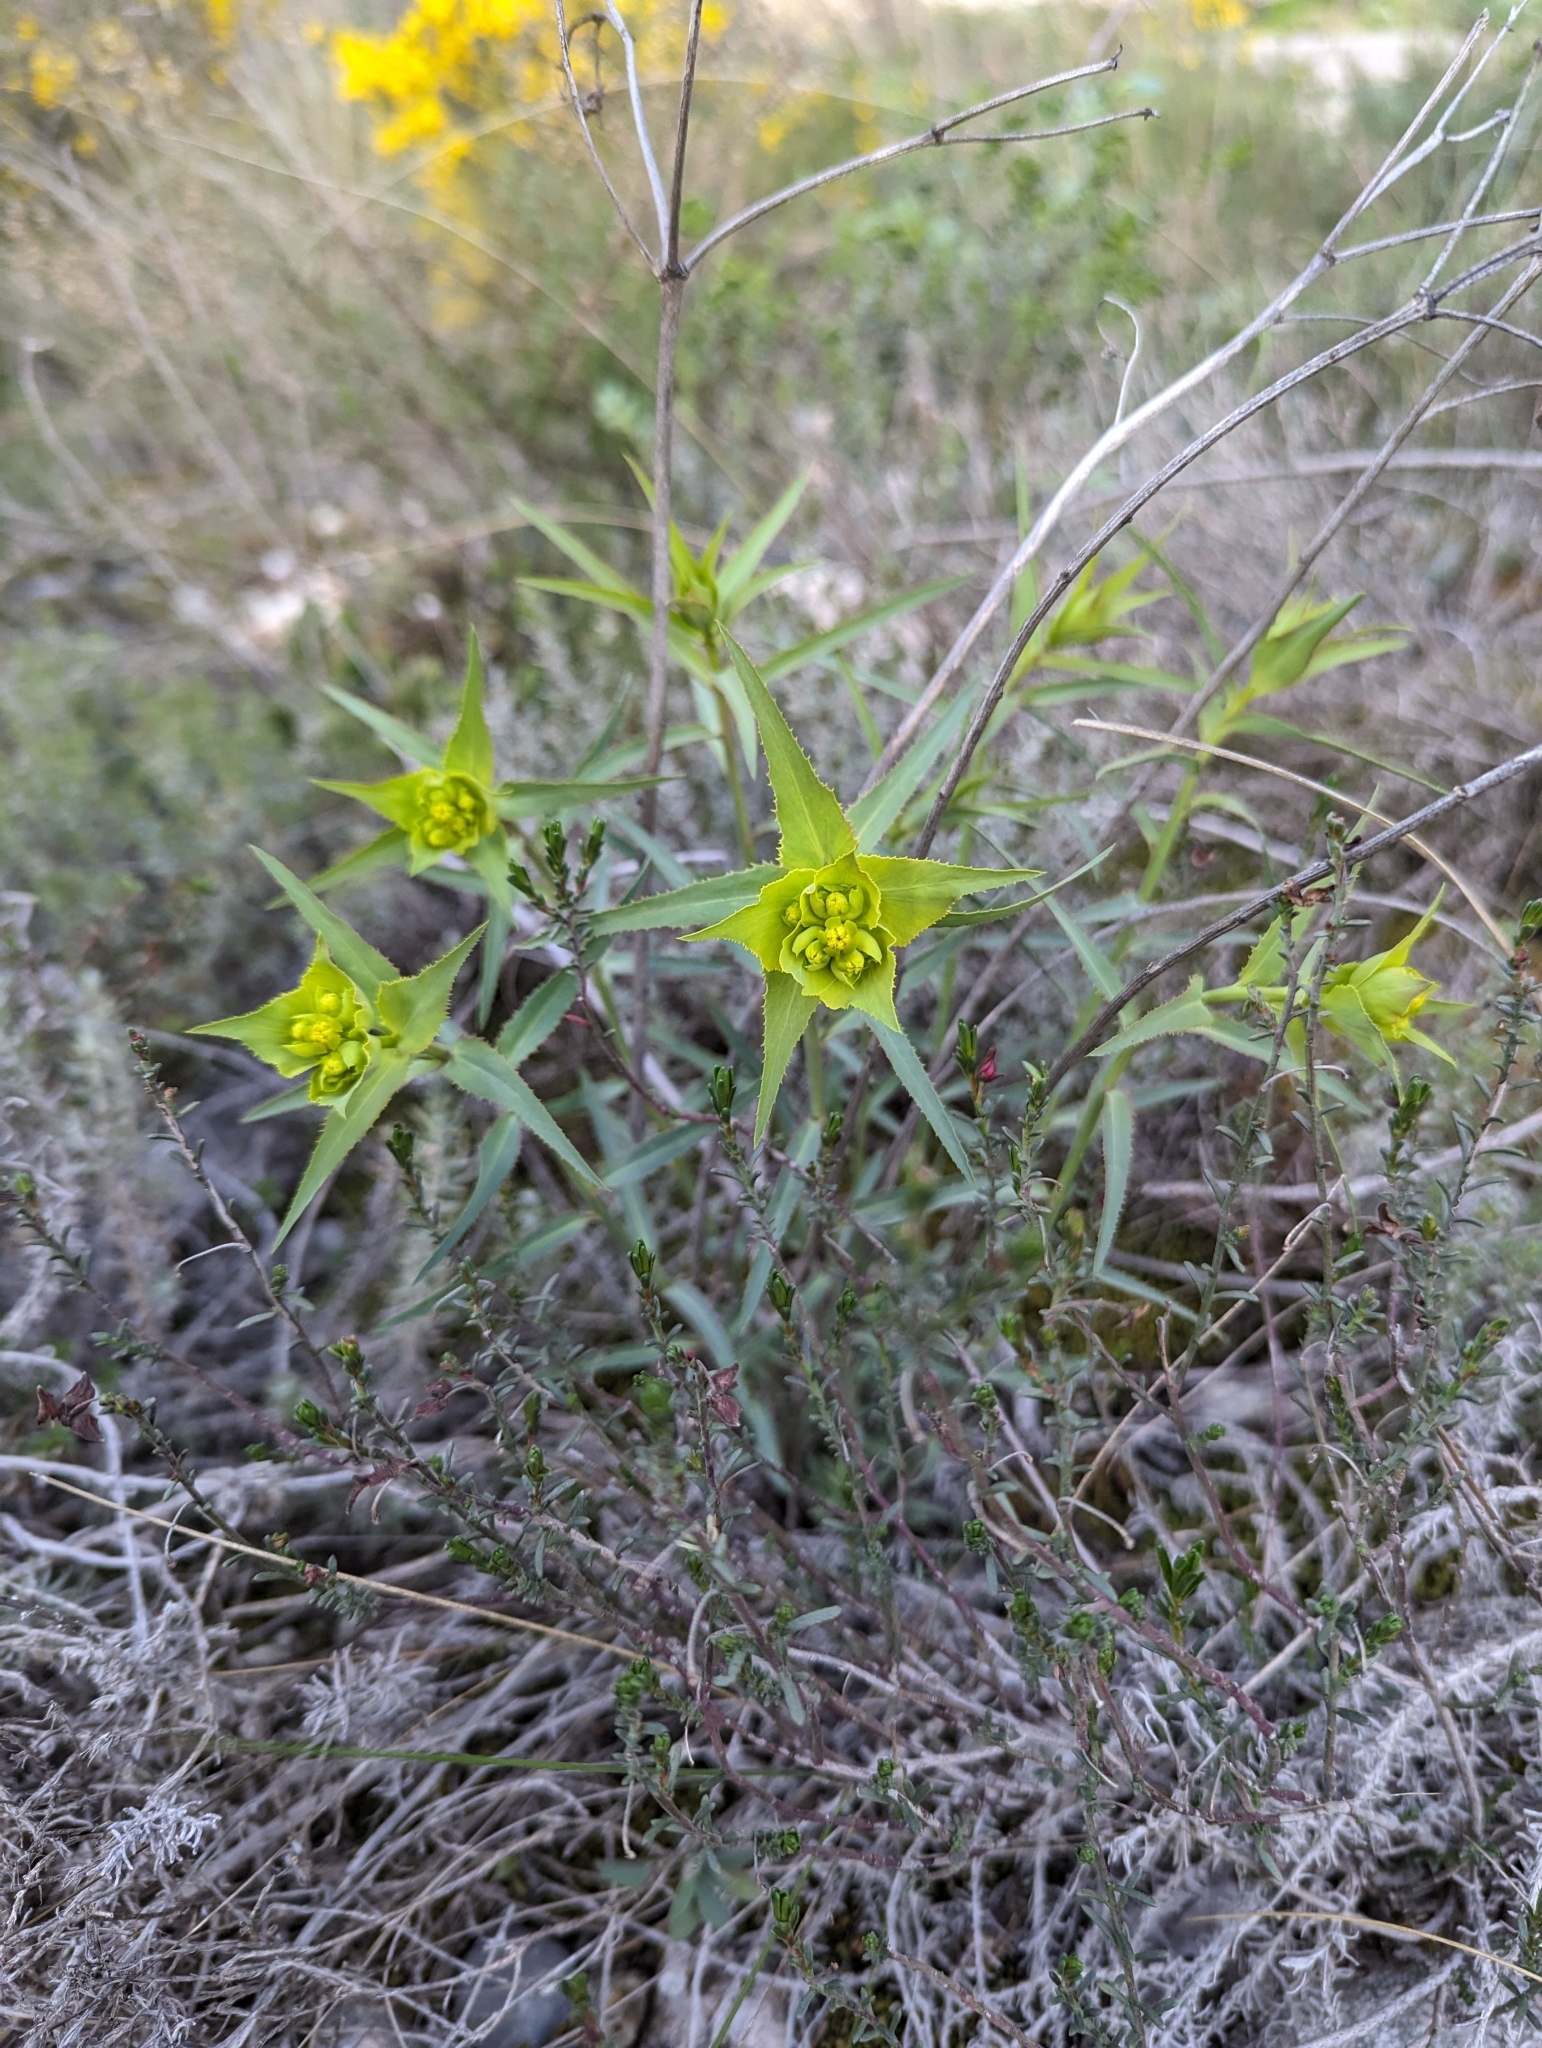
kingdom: Plantae
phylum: Tracheophyta
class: Magnoliopsida
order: Malpighiales
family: Euphorbiaceae
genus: Euphorbia
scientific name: Euphorbia serrata
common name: Serrate spurge
